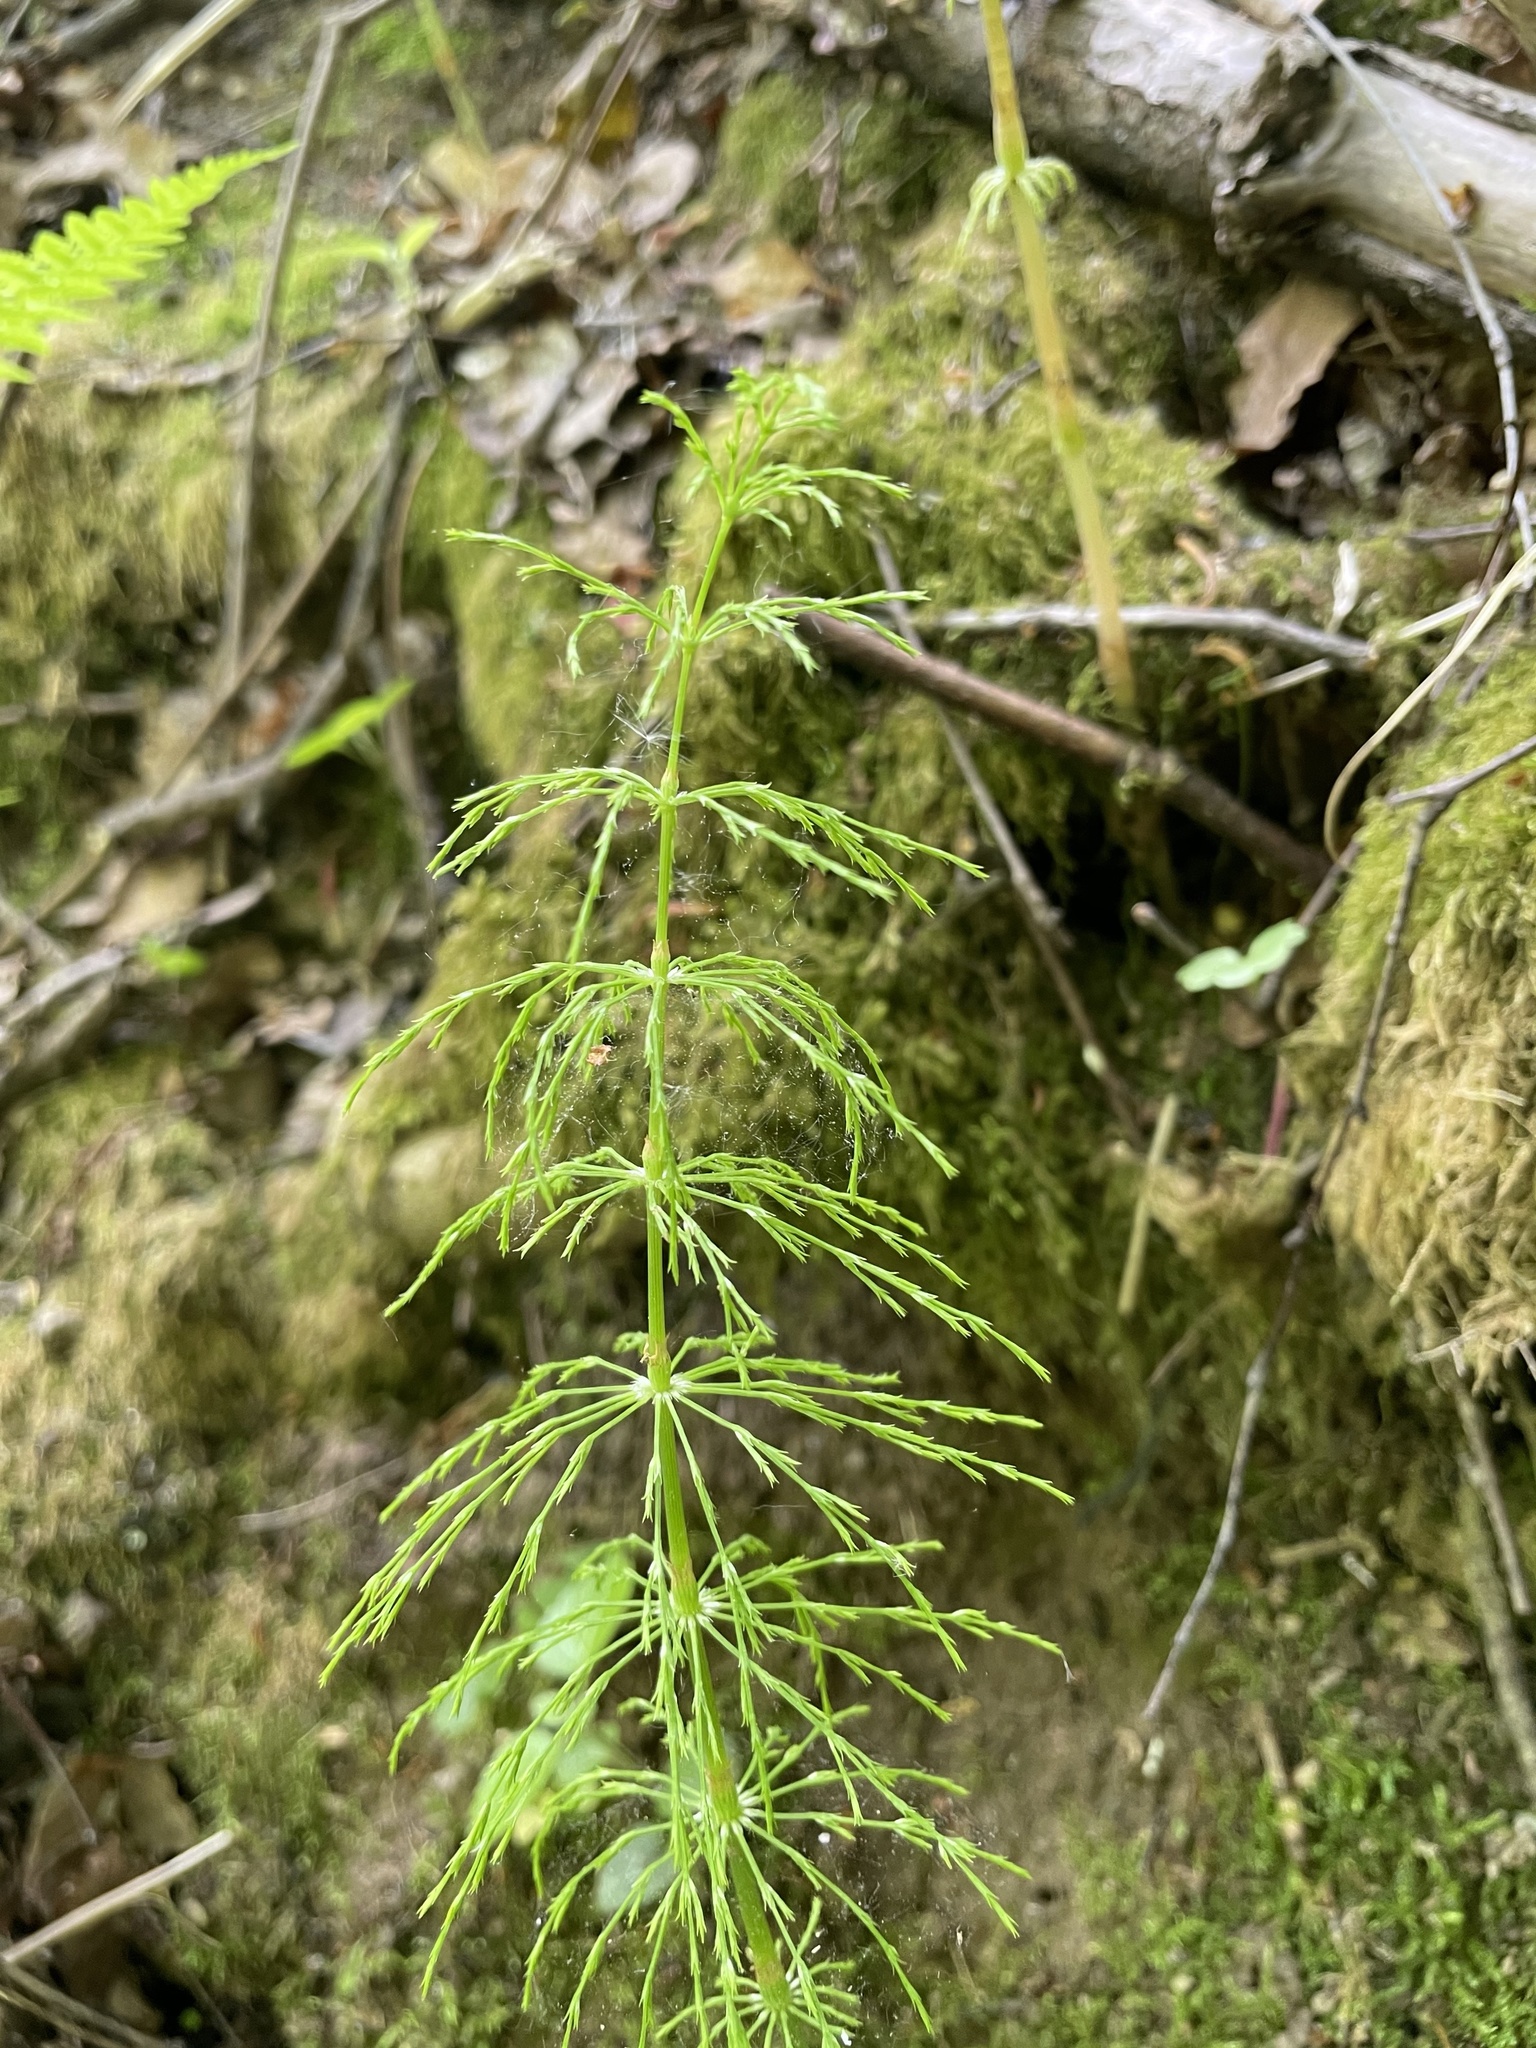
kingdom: Plantae
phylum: Tracheophyta
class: Polypodiopsida
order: Equisetales
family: Equisetaceae
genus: Equisetum
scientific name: Equisetum sylvaticum
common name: Wood horsetail
